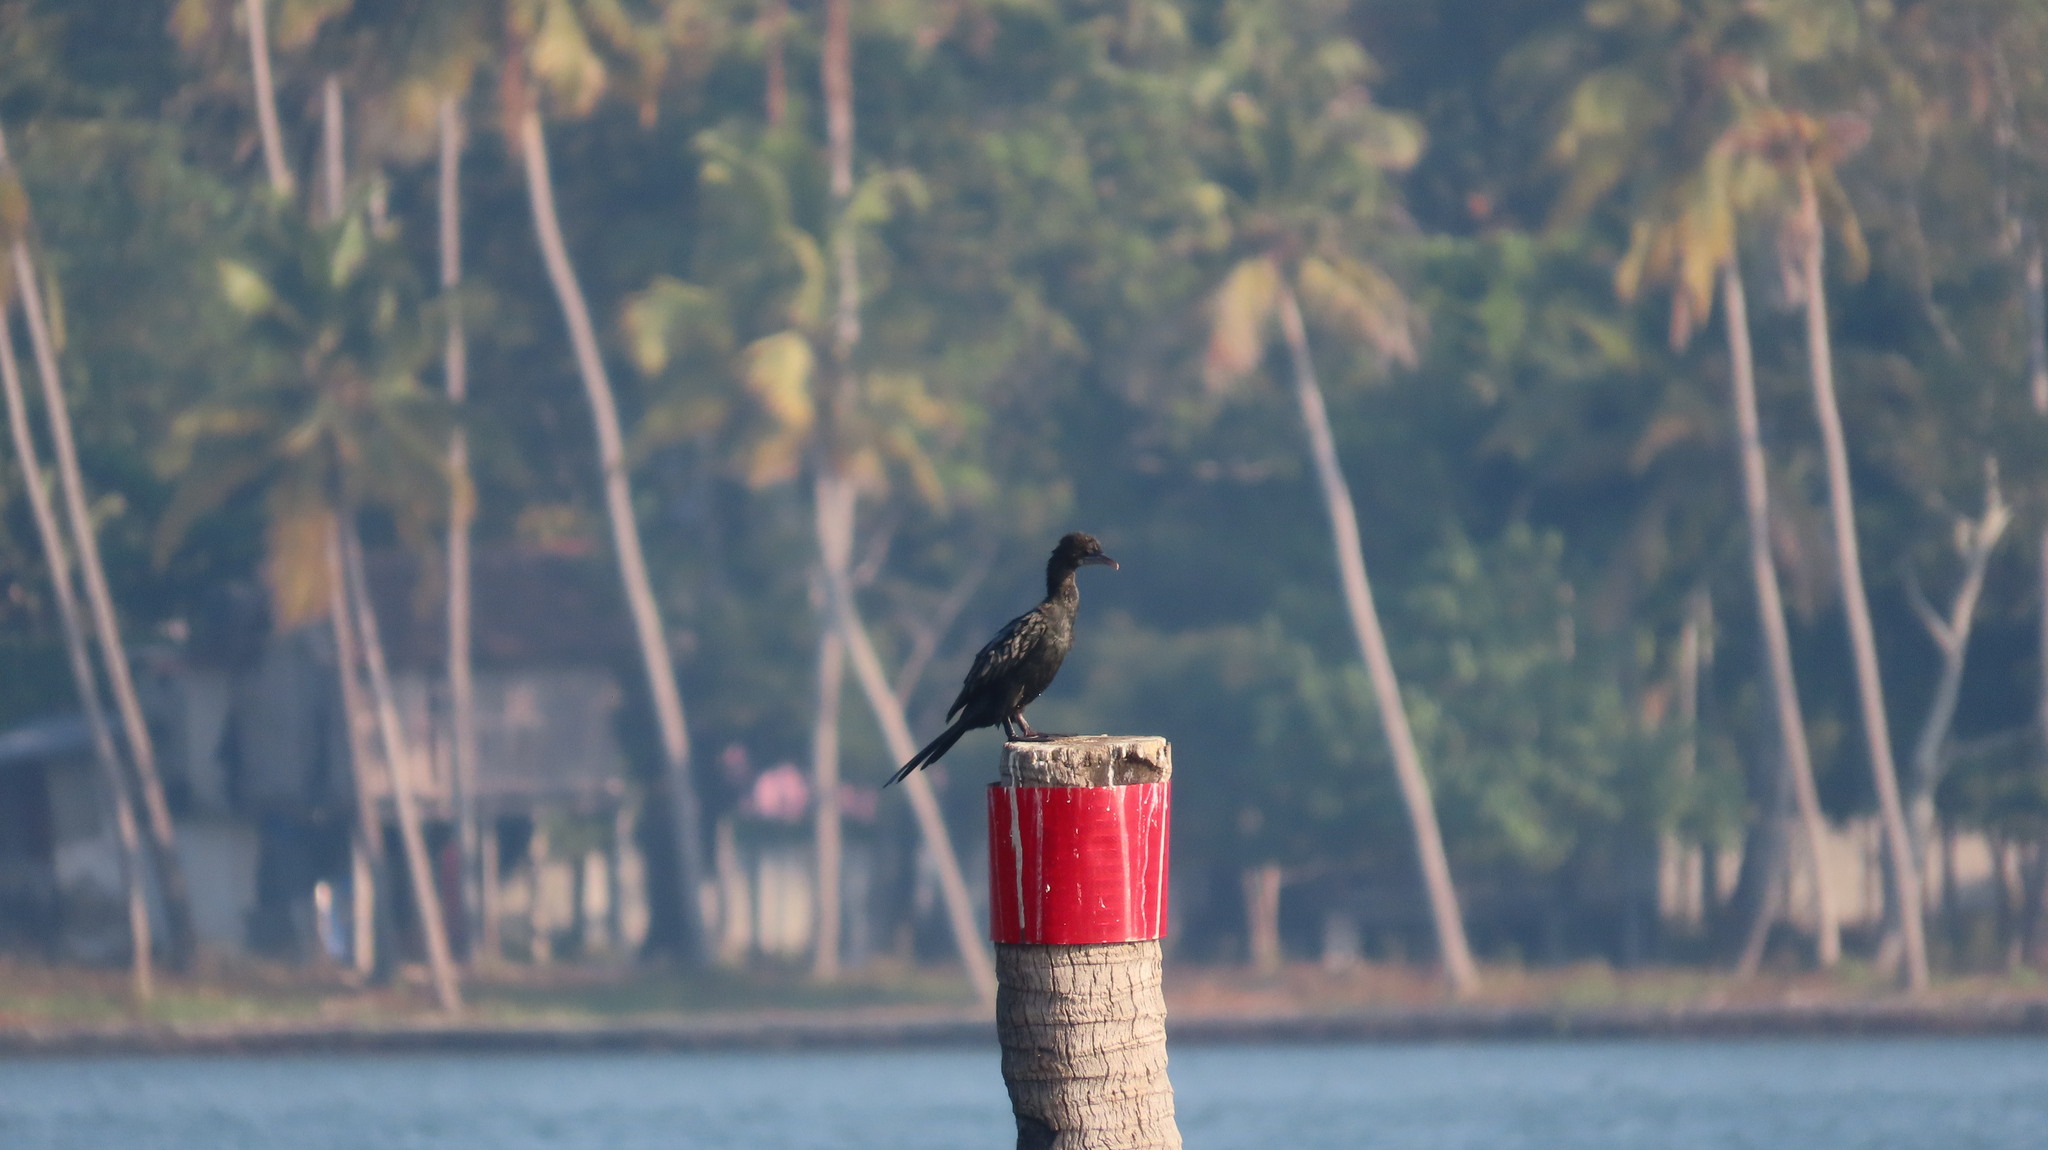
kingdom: Animalia
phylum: Chordata
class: Aves
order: Suliformes
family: Phalacrocoracidae
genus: Microcarbo
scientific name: Microcarbo niger
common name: Little cormorant
